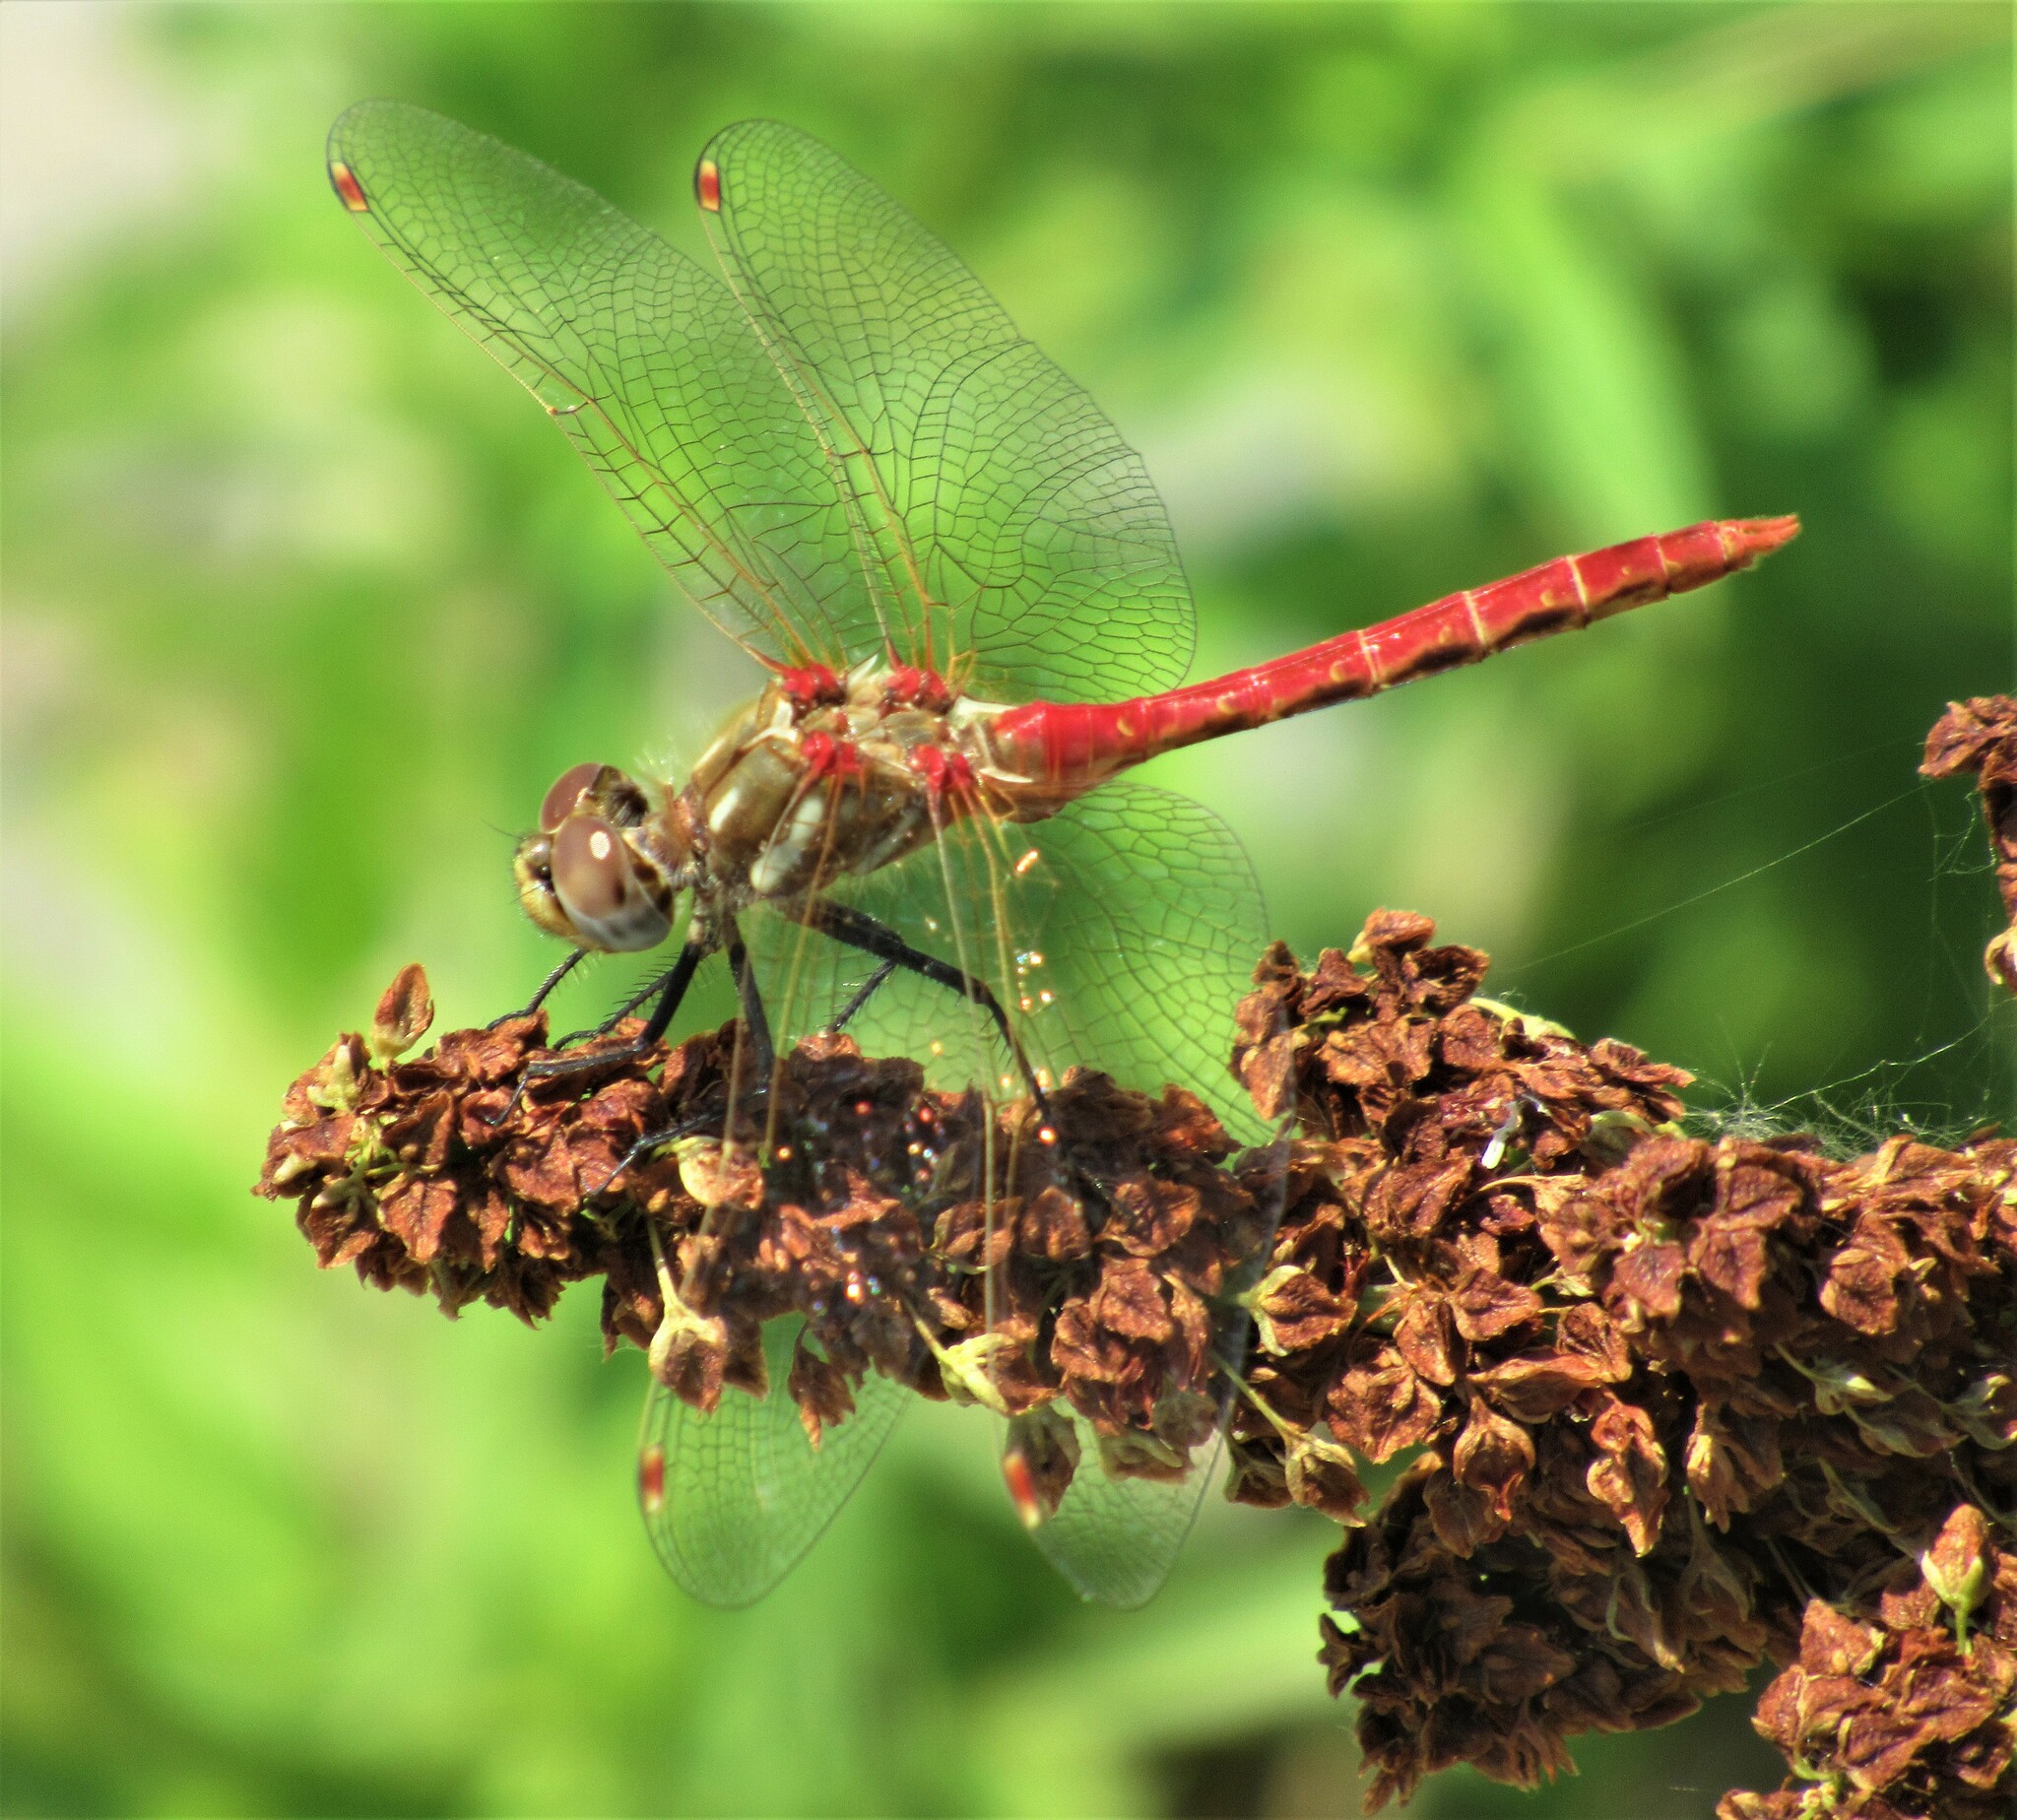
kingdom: Animalia
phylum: Arthropoda
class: Insecta
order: Odonata
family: Libellulidae
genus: Sympetrum
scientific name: Sympetrum pallipes
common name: Striped meadowhawk
